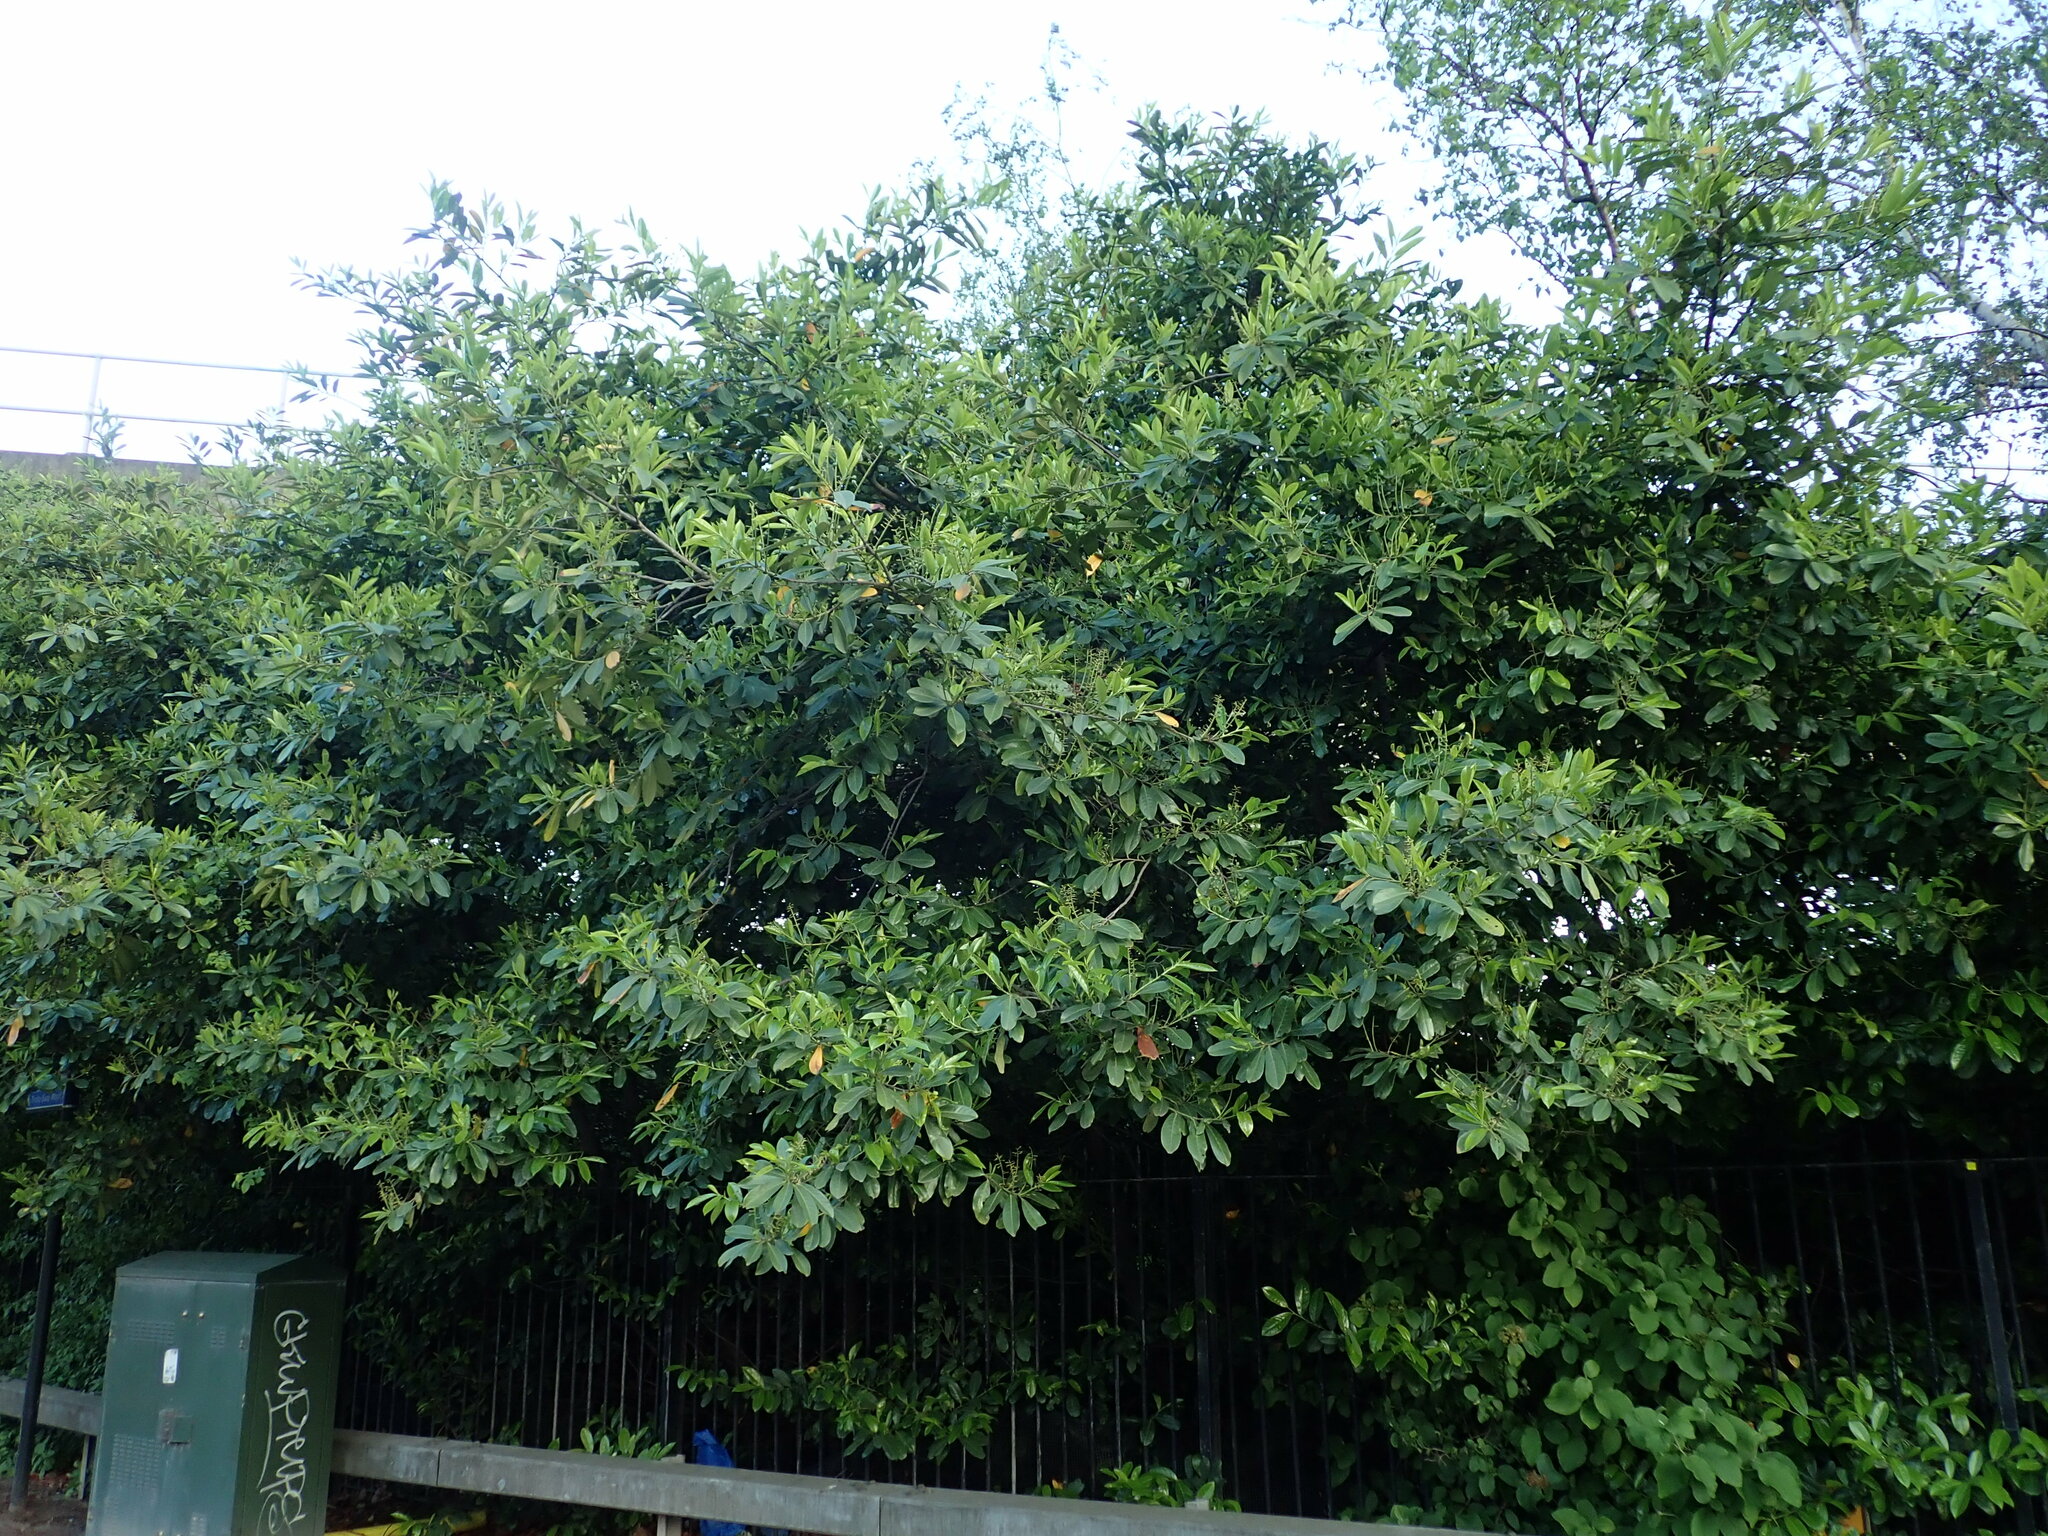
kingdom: Plantae
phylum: Tracheophyta
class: Magnoliopsida
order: Rosales
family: Rosaceae
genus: Prunus
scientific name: Prunus laurocerasus
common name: Cherry laurel
